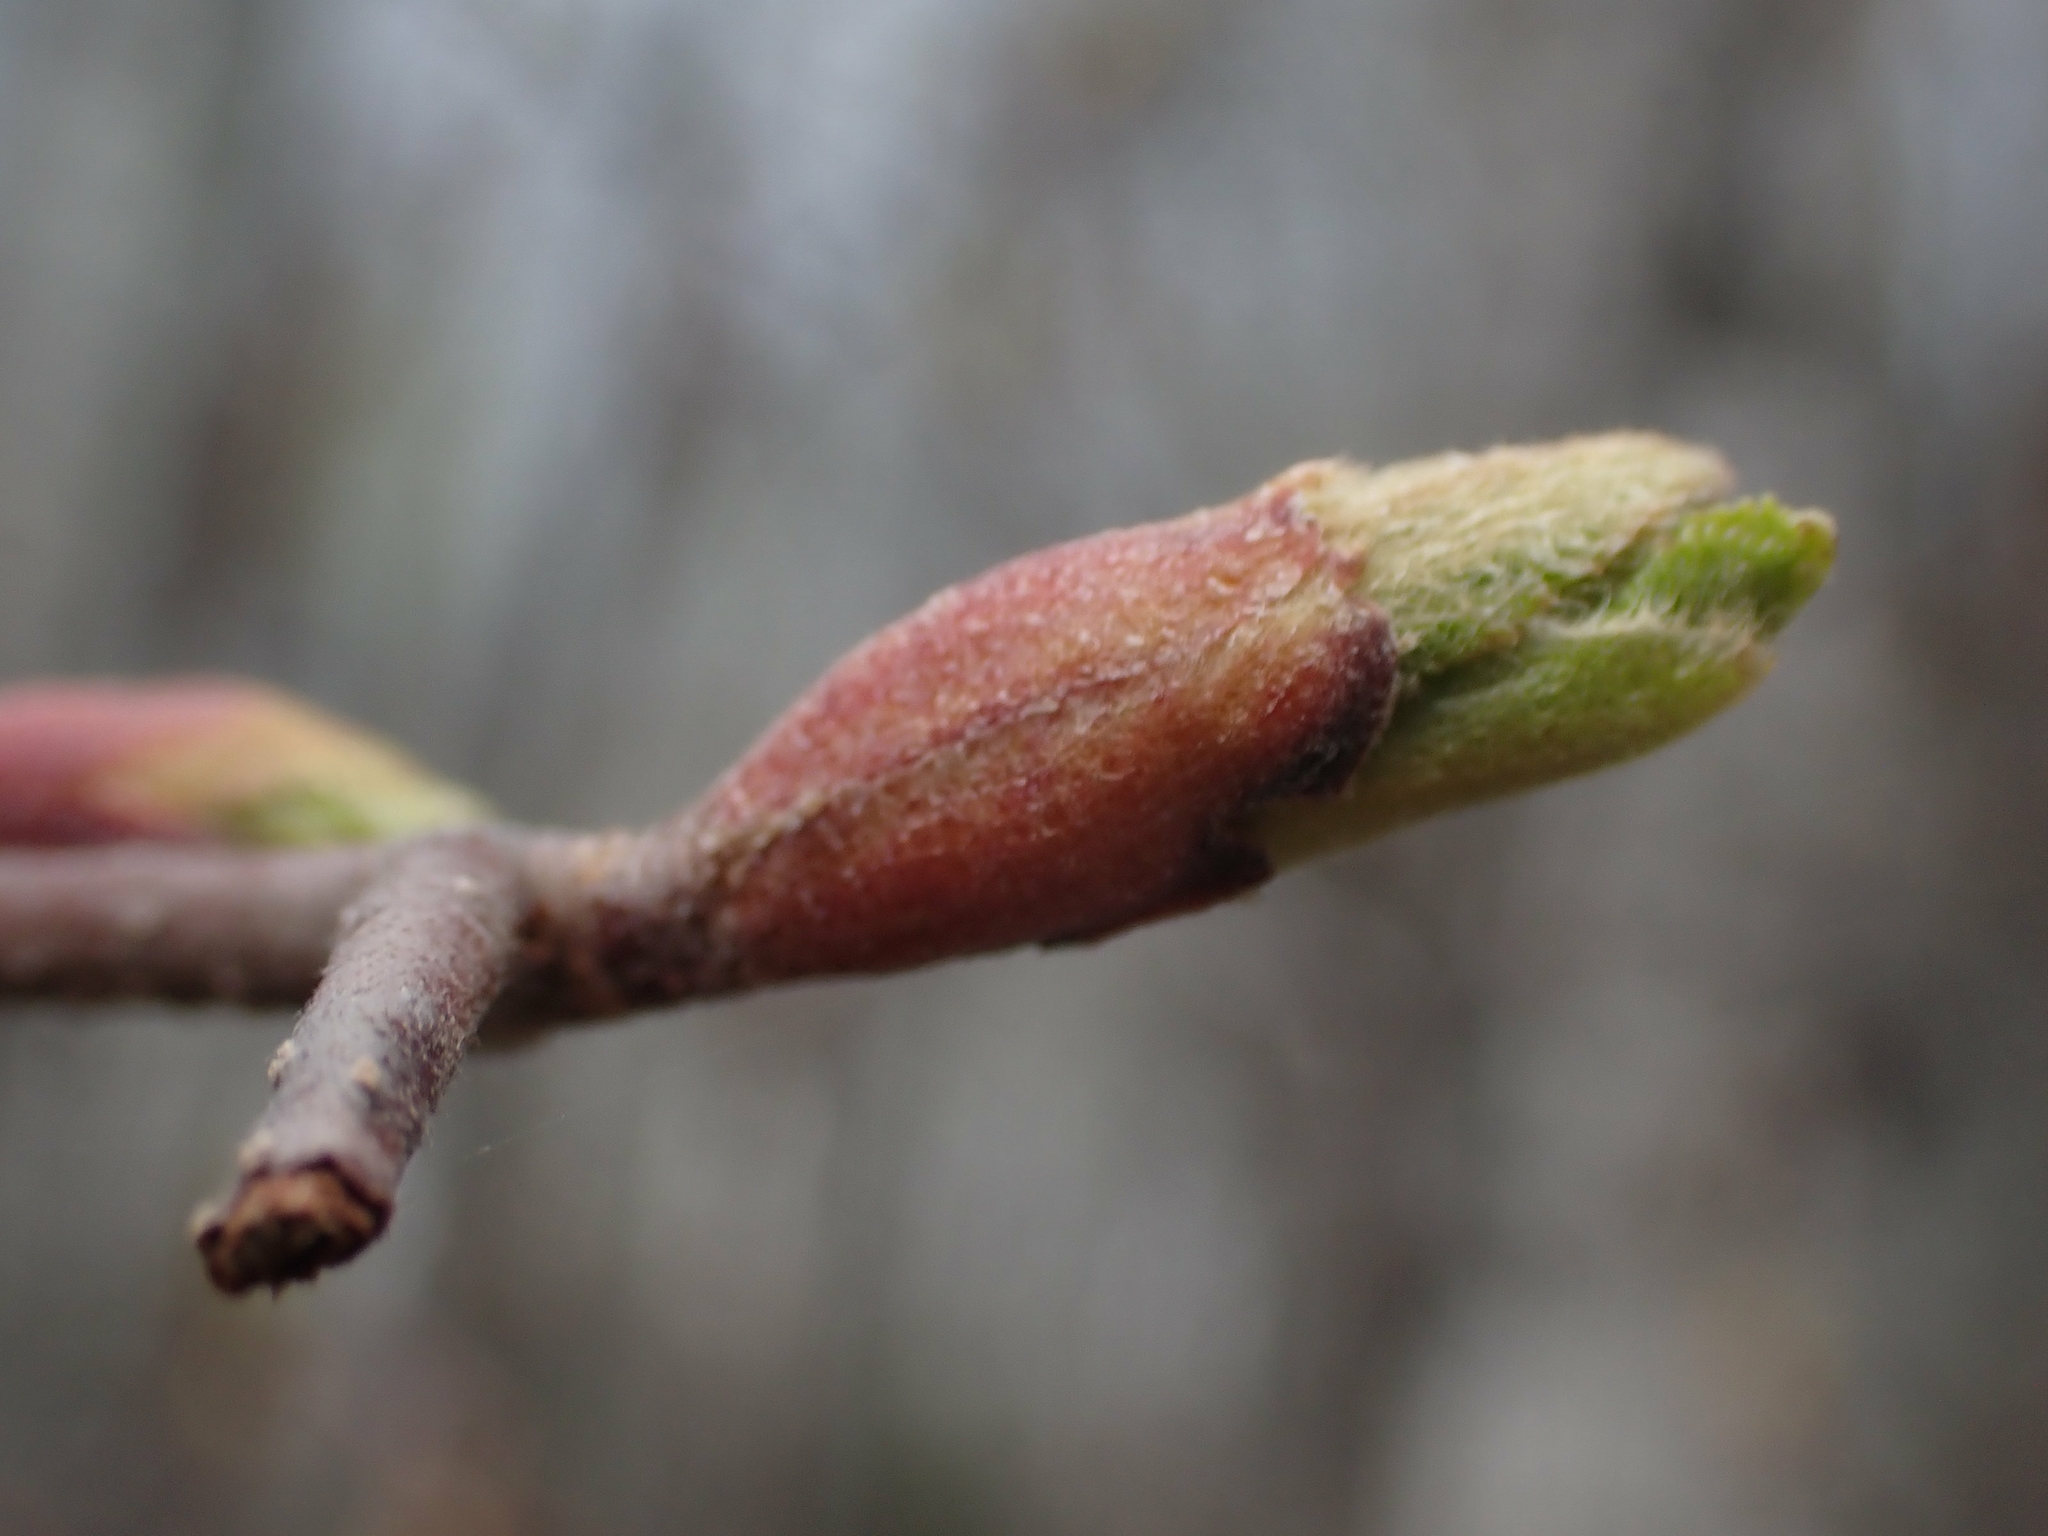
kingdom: Plantae
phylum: Tracheophyta
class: Magnoliopsida
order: Fagales
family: Betulaceae
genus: Alnus
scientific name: Alnus incana
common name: Grey alder
